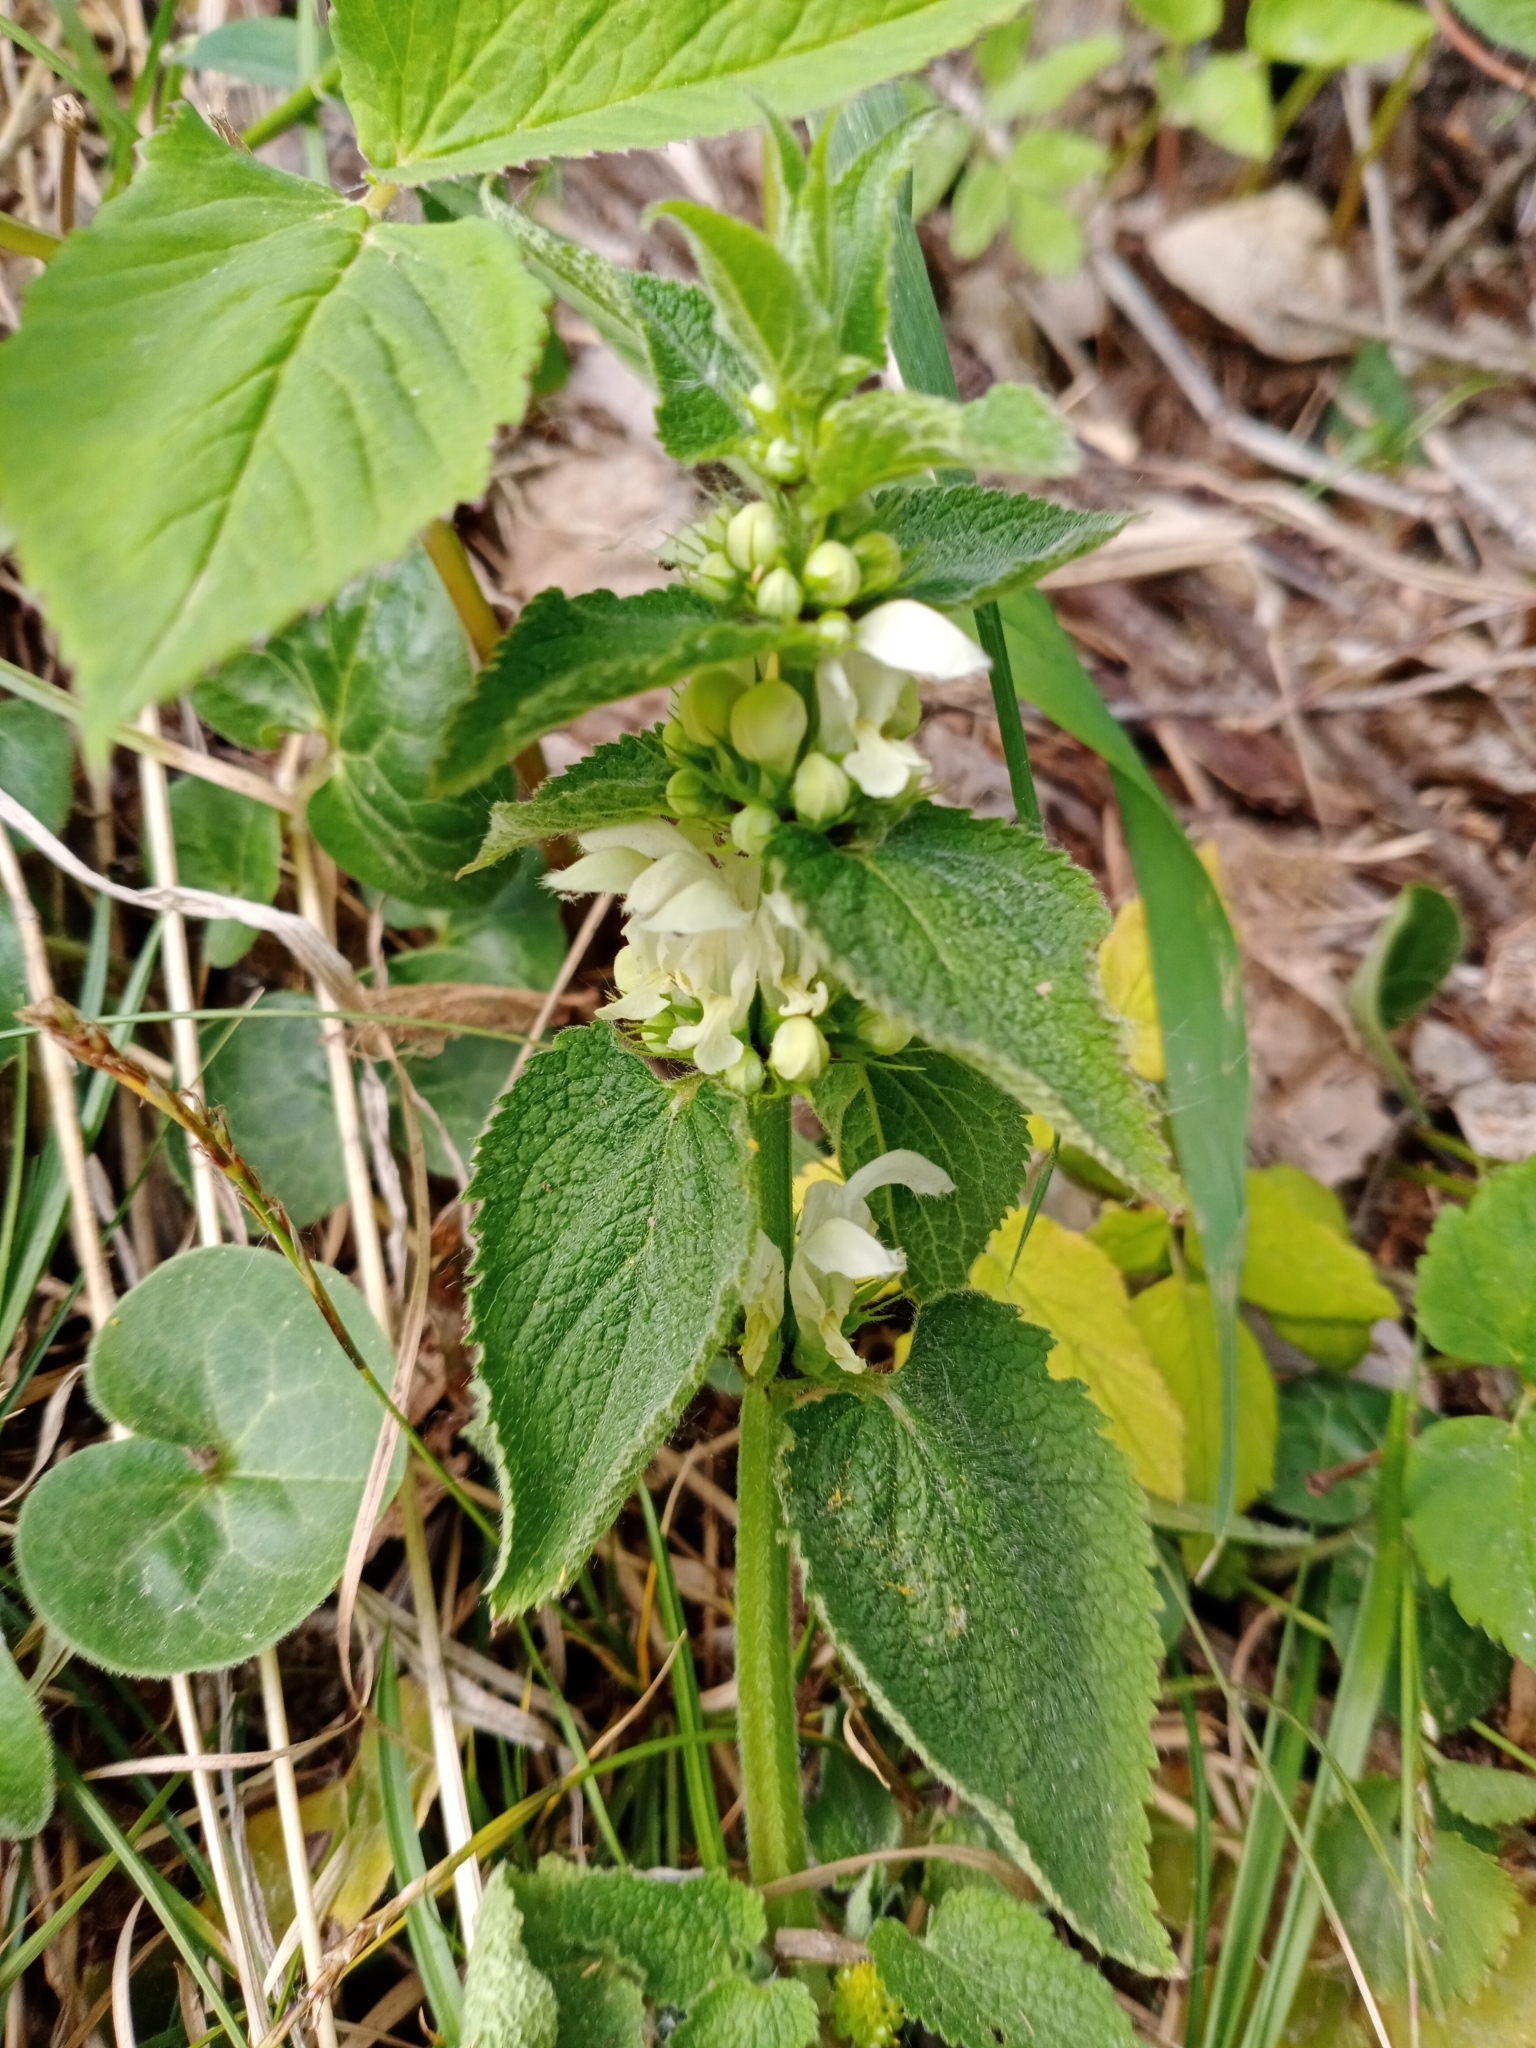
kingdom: Plantae
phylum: Tracheophyta
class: Magnoliopsida
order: Lamiales
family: Lamiaceae
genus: Lamium
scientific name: Lamium album
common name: White dead-nettle
